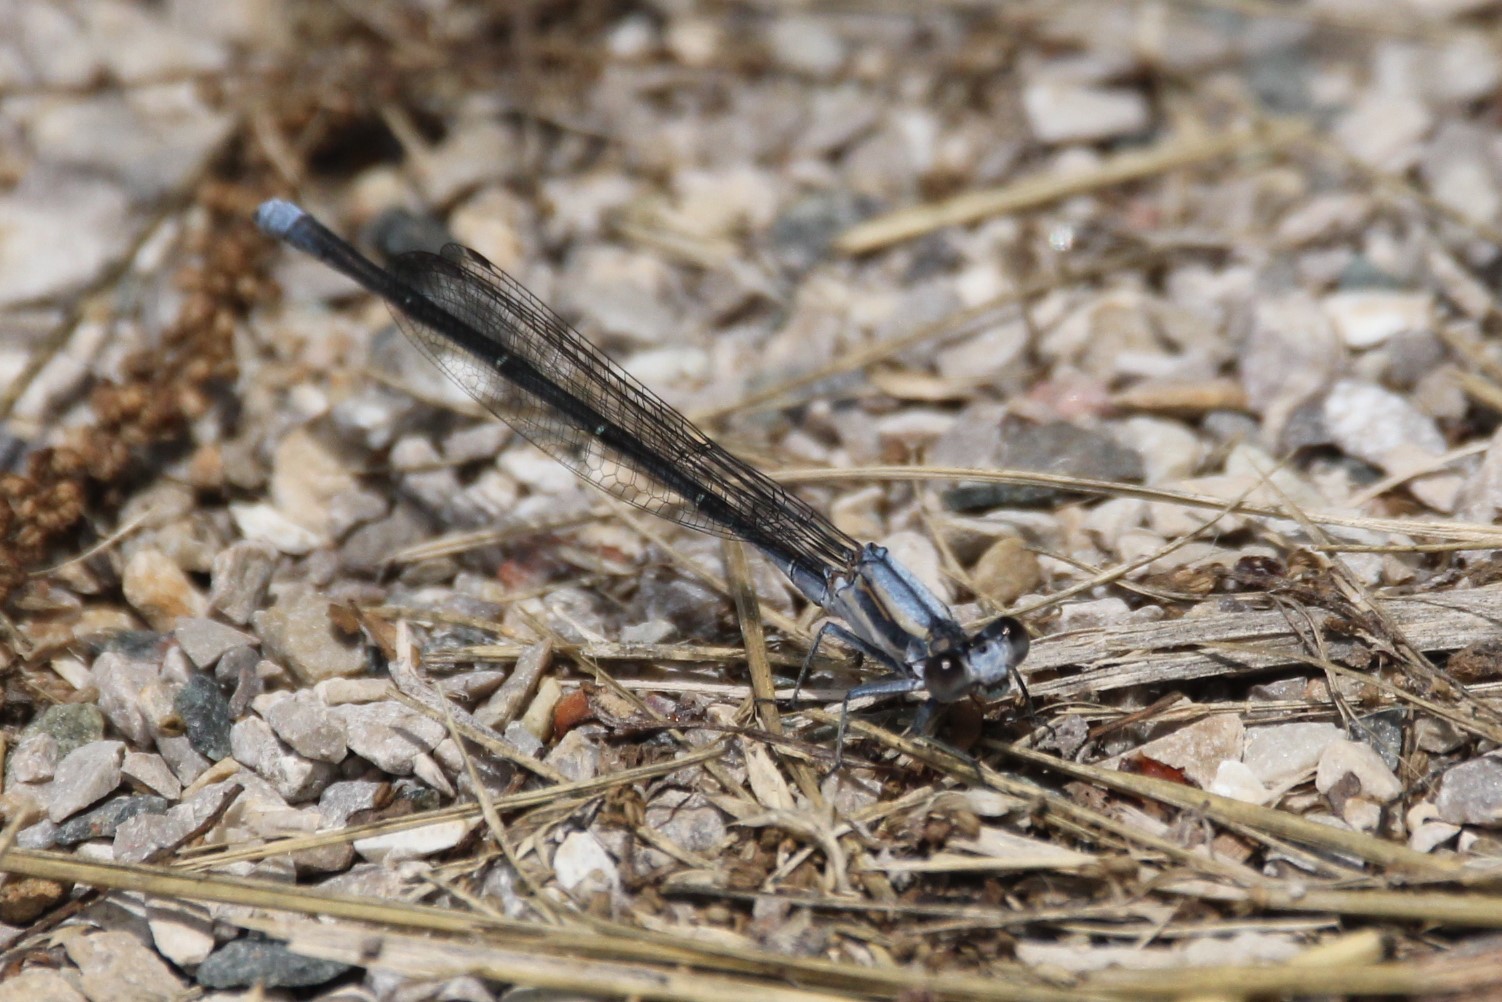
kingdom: Animalia
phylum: Arthropoda
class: Insecta
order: Odonata
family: Coenagrionidae
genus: Argia
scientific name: Argia moesta
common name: Powdered dancer
